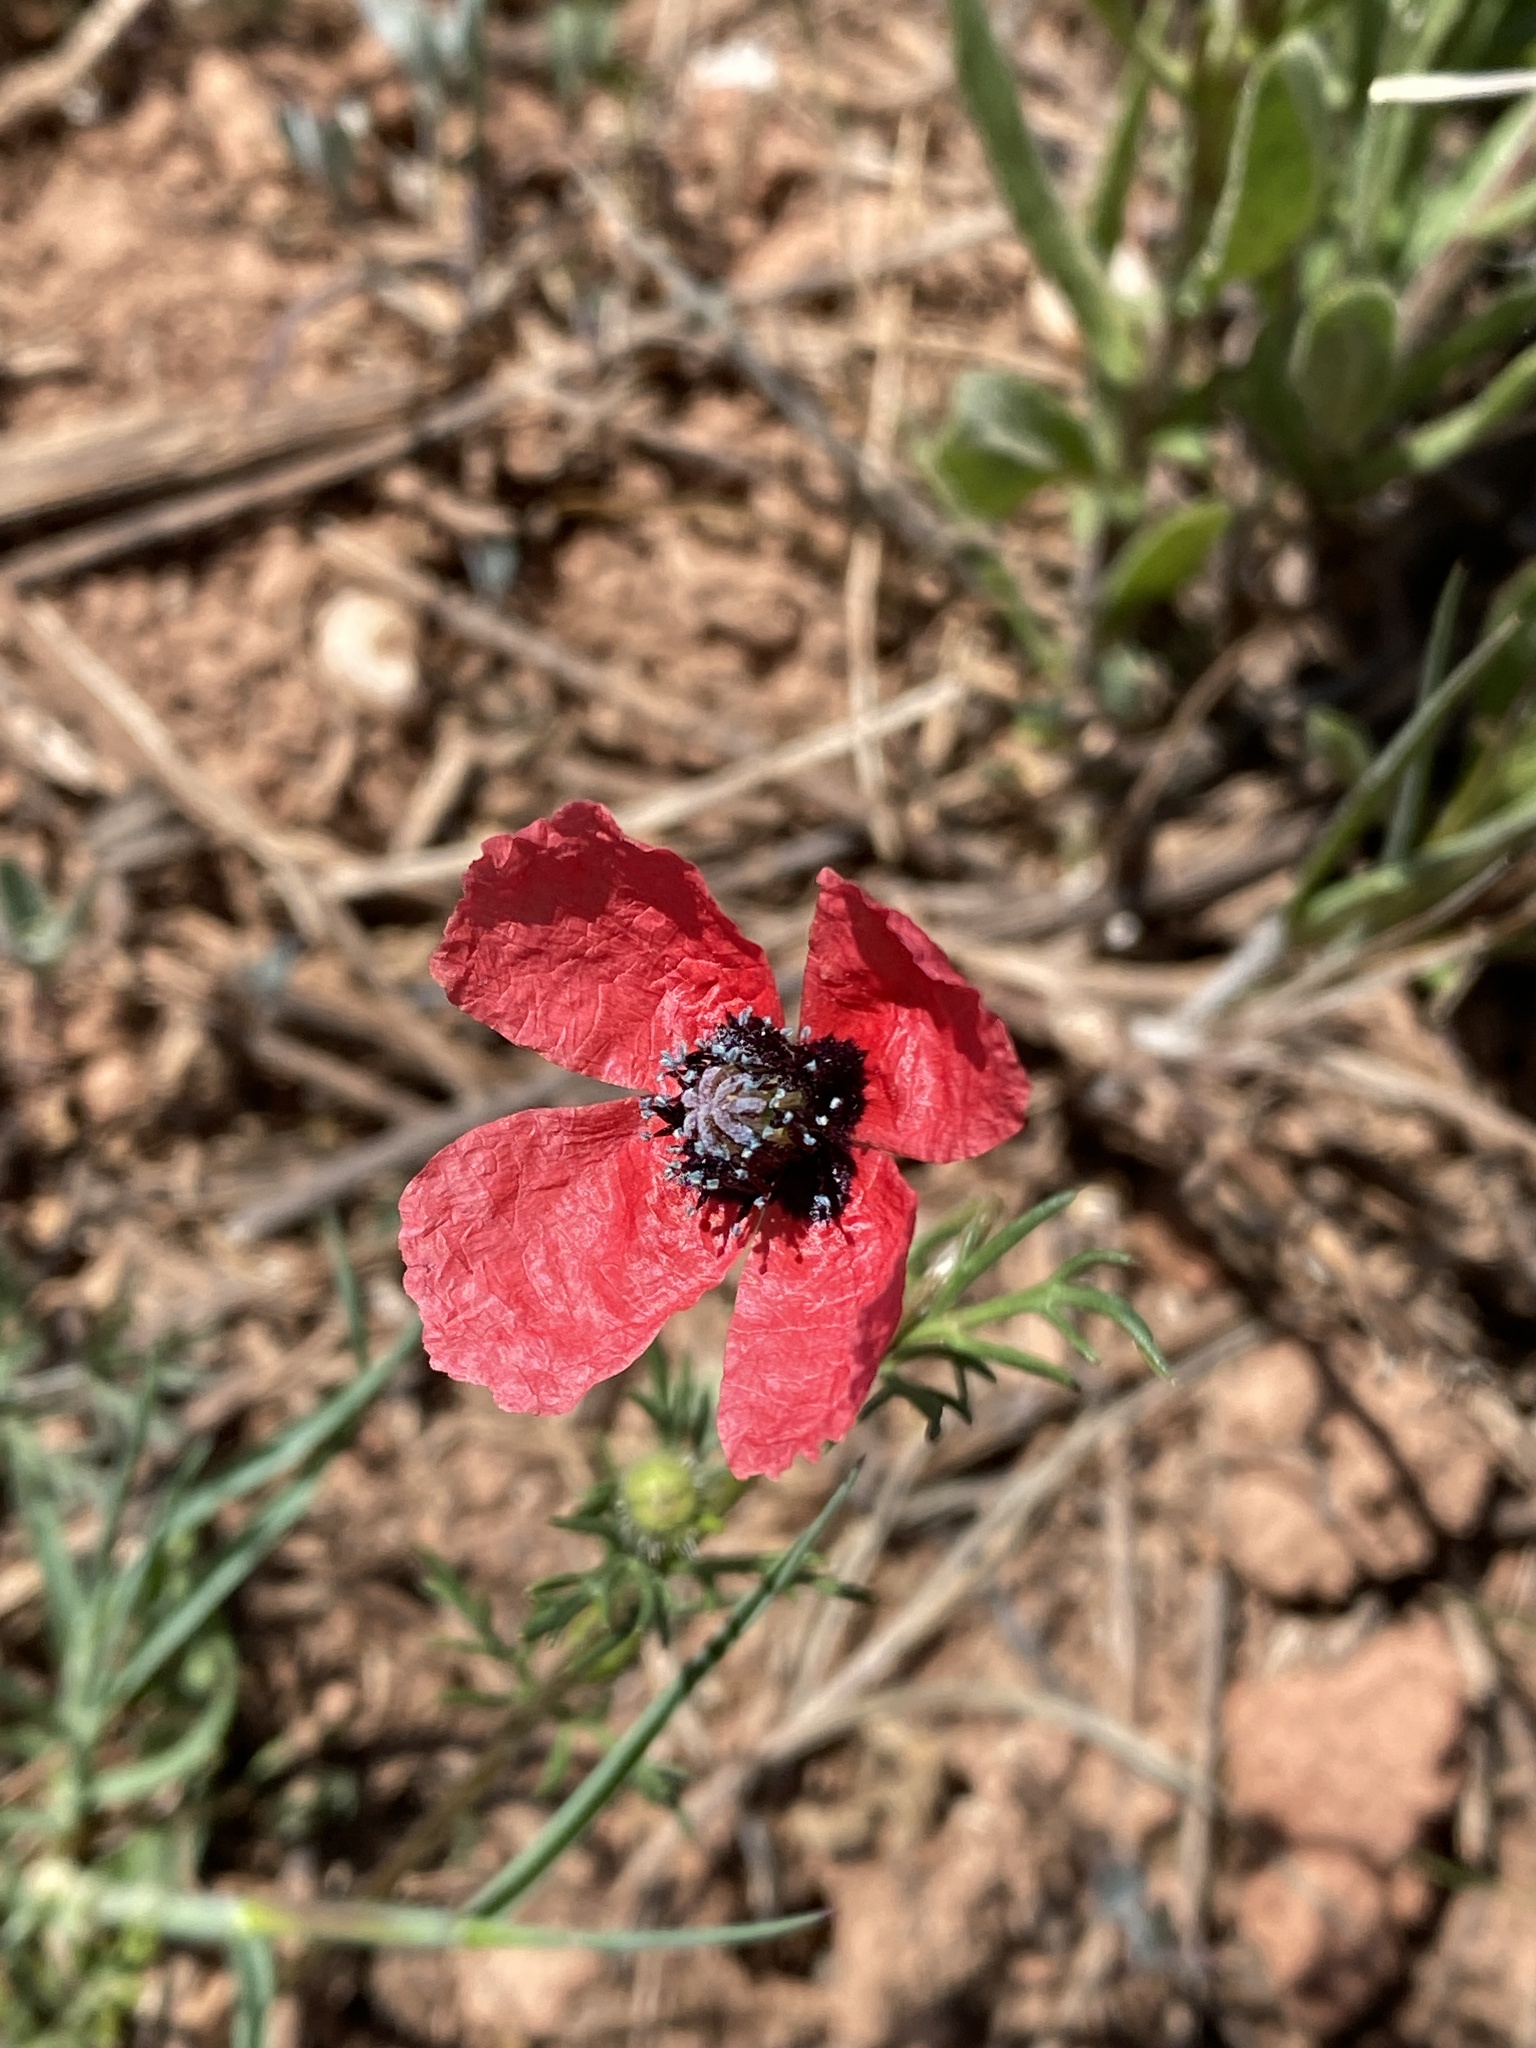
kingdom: Plantae
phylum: Tracheophyta
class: Magnoliopsida
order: Ranunculales
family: Papaveraceae
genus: Roemeria
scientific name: Roemeria hispida
